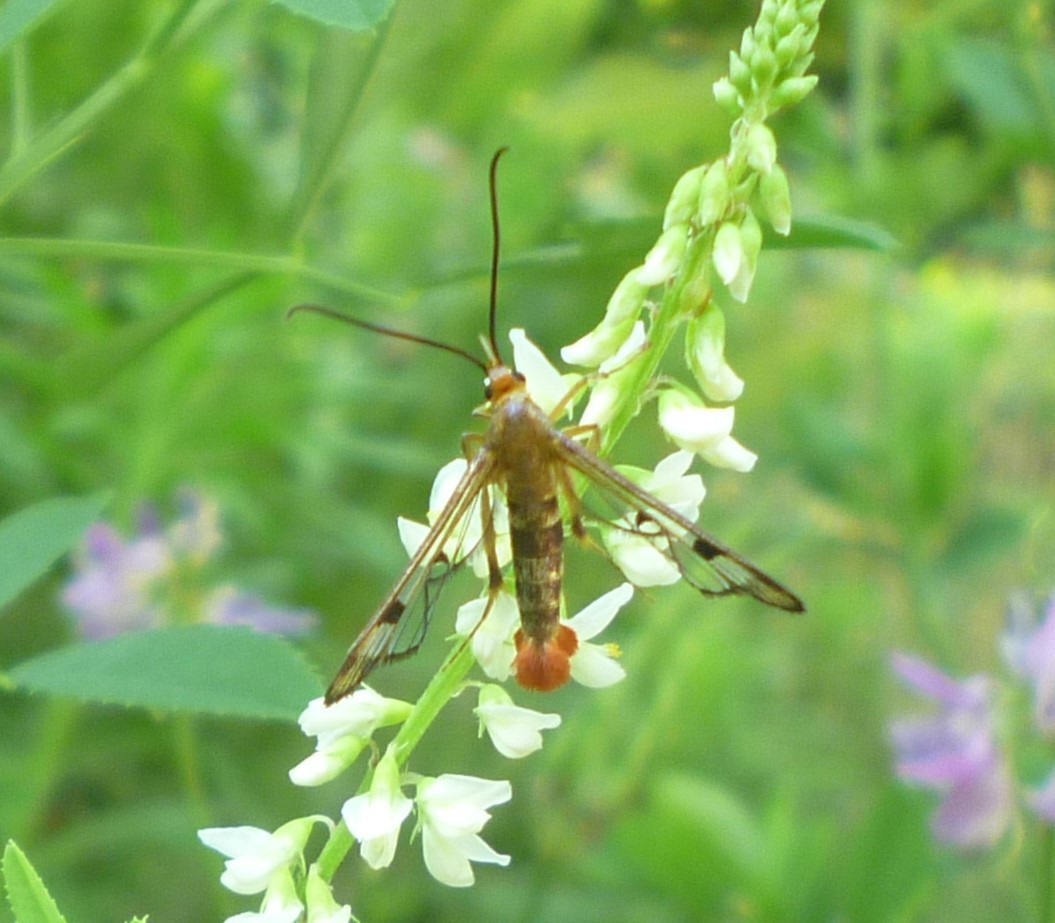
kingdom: Animalia
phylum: Arthropoda
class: Insecta
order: Lepidoptera
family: Sesiidae
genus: Synanthedon
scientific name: Synanthedon acerni
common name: Maple callus borer moth
